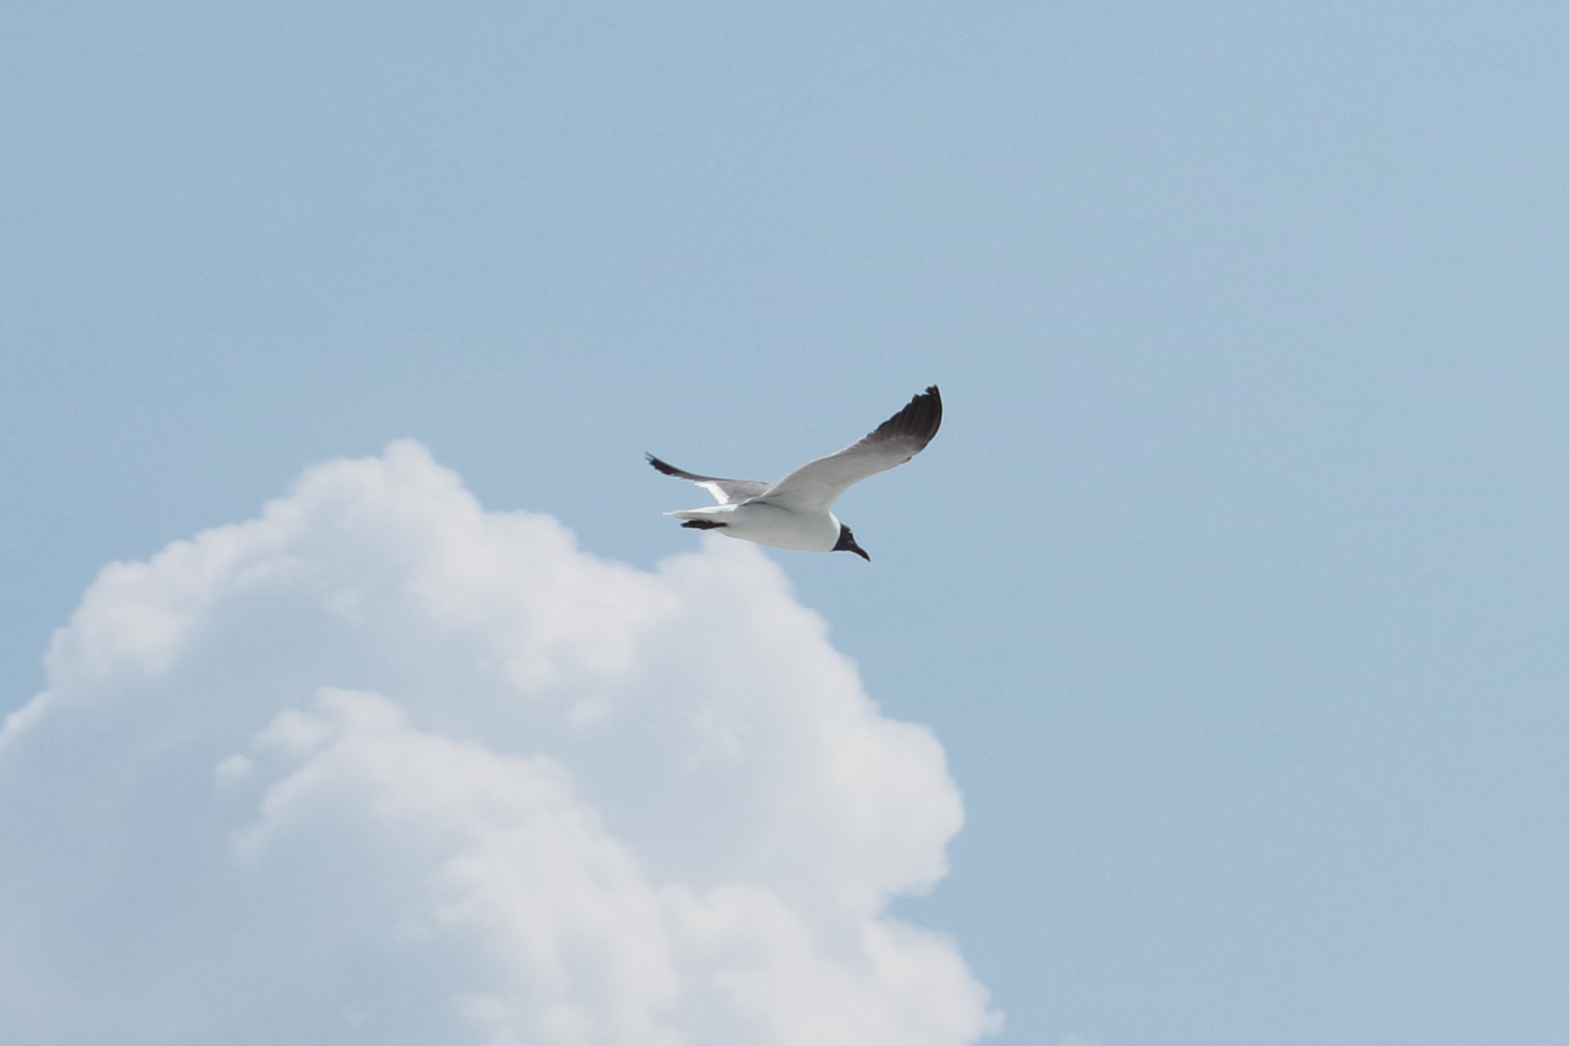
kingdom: Animalia
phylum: Chordata
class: Aves
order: Charadriiformes
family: Laridae
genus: Leucophaeus
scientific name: Leucophaeus atricilla
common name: Laughing gull
